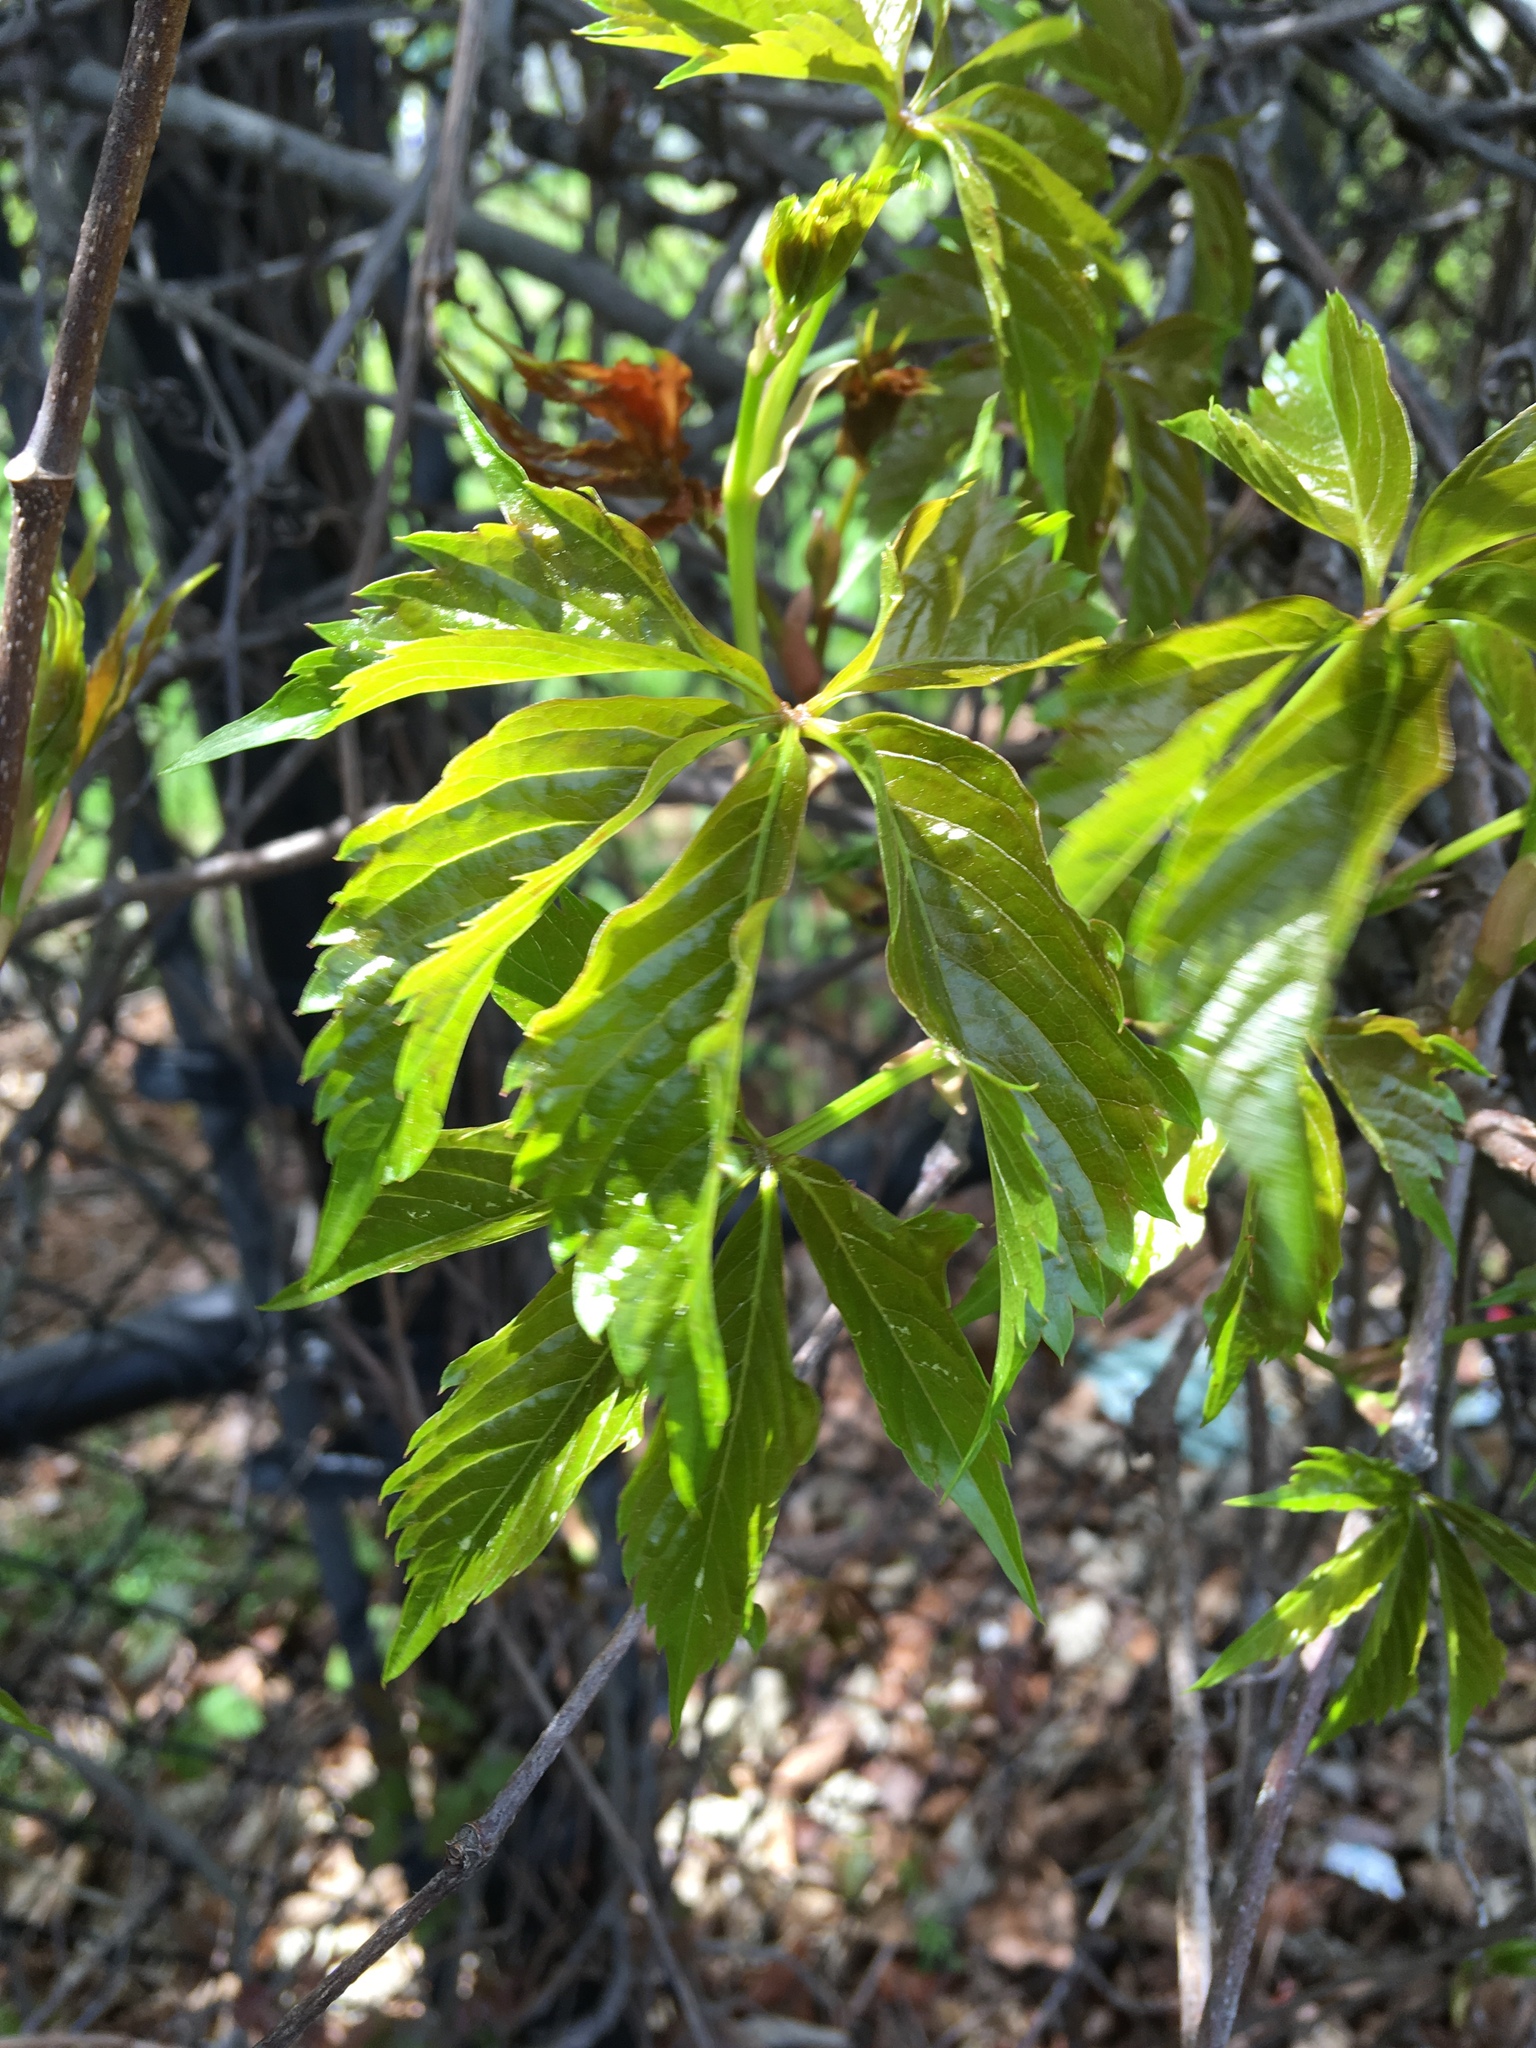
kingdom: Plantae
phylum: Tracheophyta
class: Magnoliopsida
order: Vitales
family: Vitaceae
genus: Parthenocissus
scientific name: Parthenocissus quinquefolia
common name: Virginia-creeper
